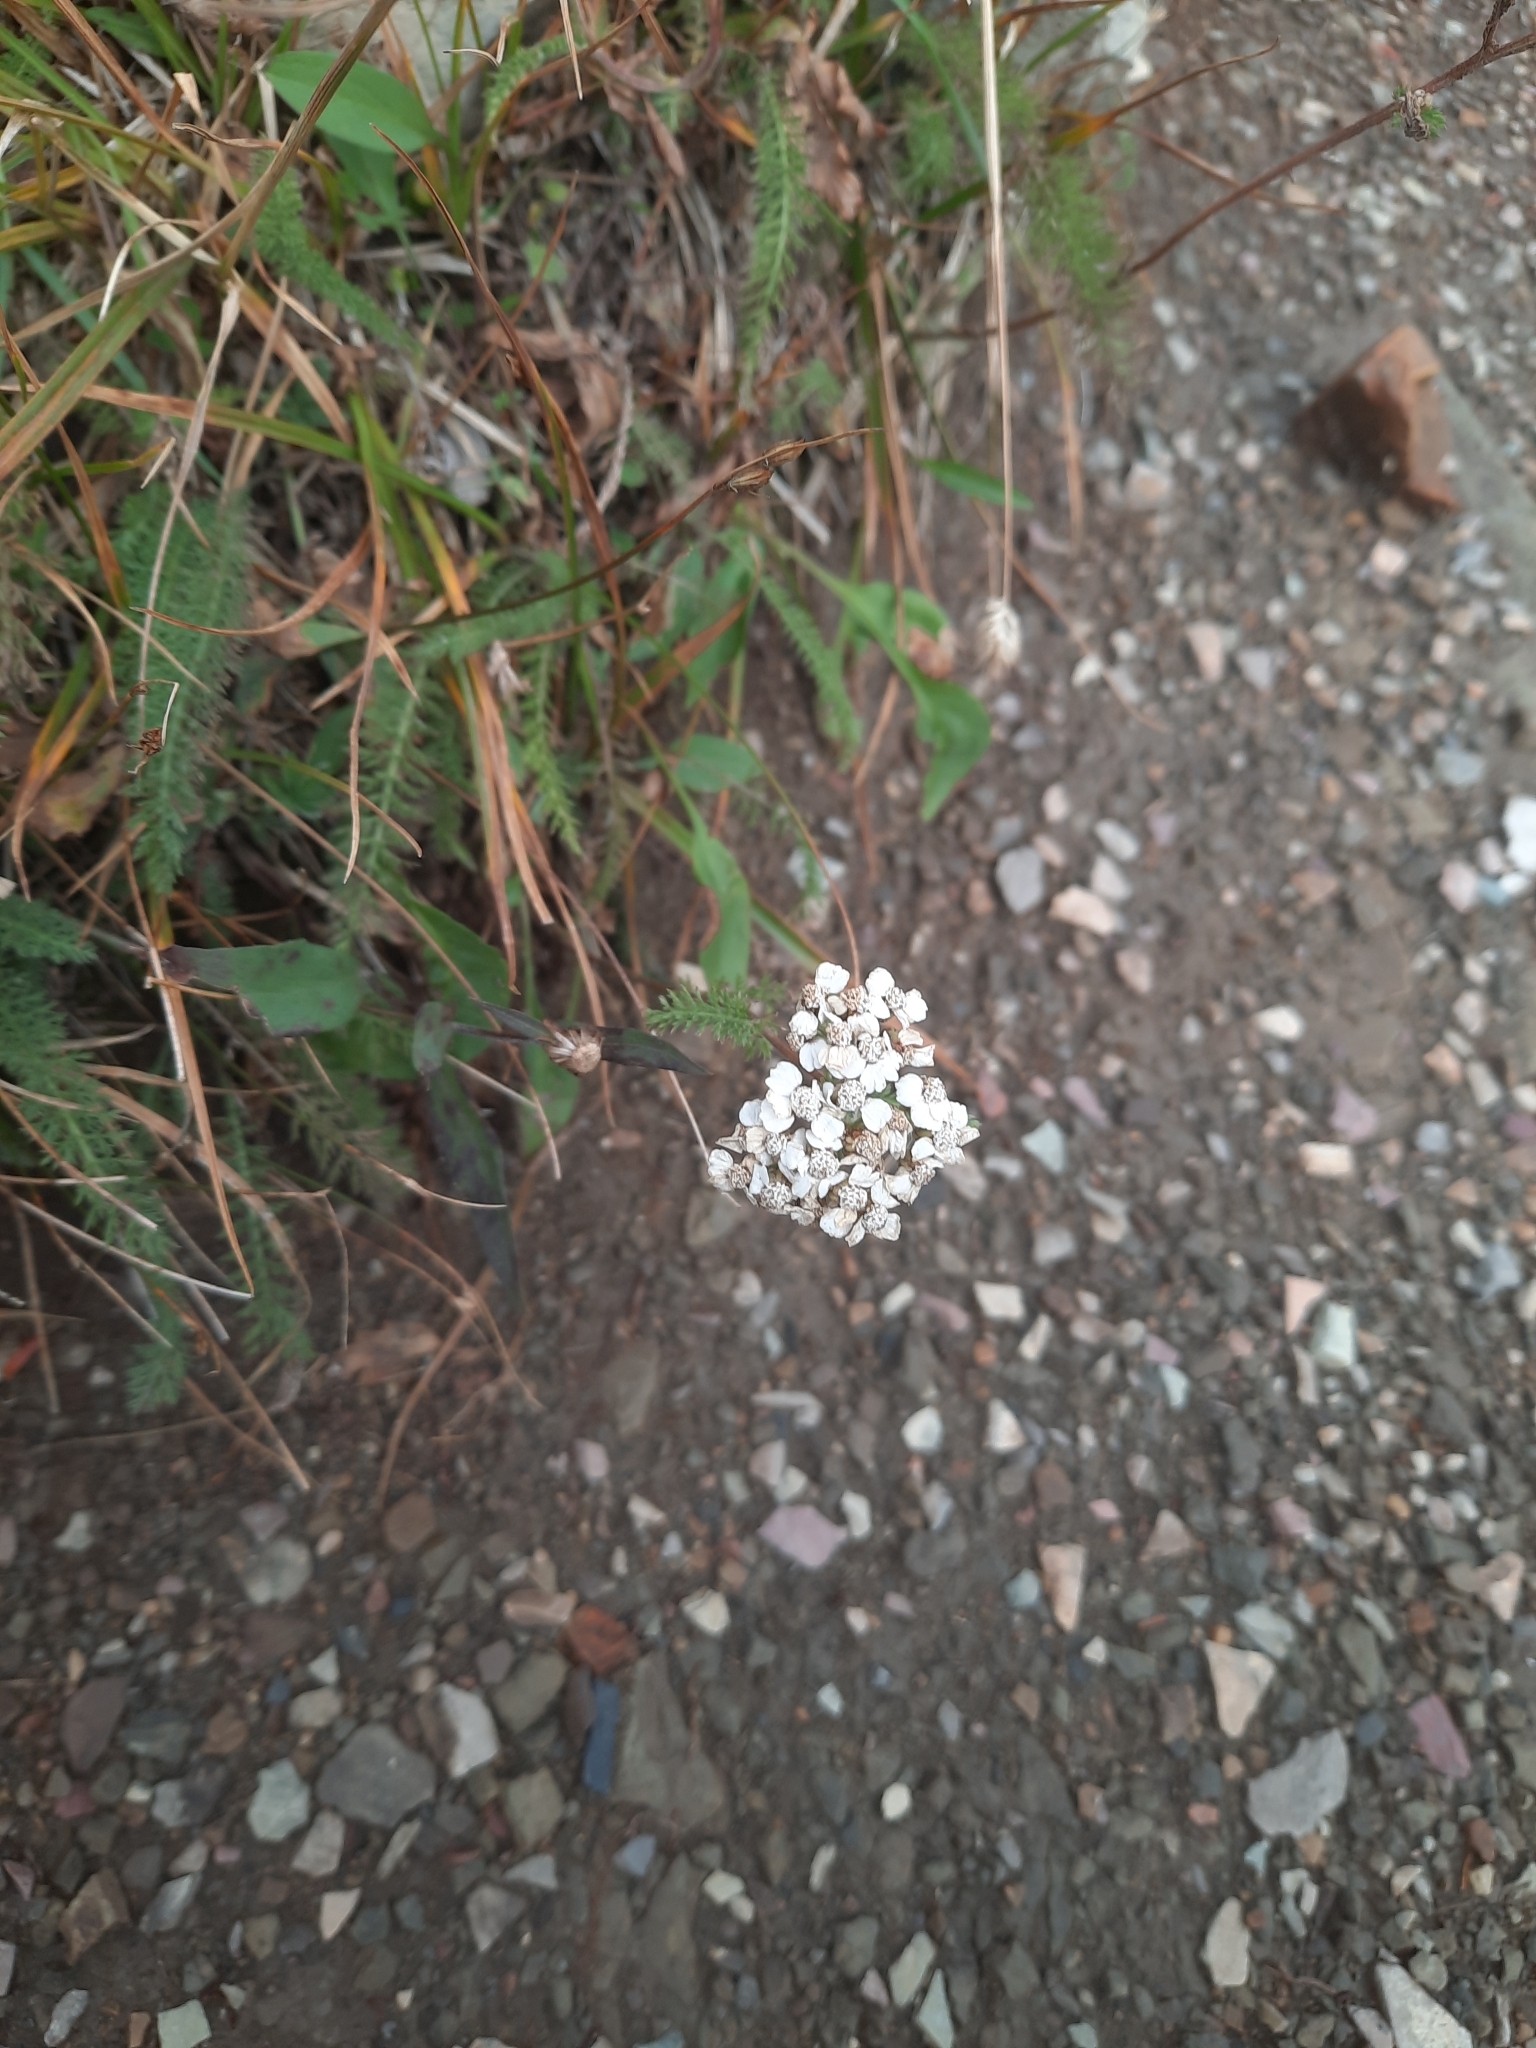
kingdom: Plantae
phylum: Tracheophyta
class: Magnoliopsida
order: Asterales
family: Asteraceae
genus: Achillea
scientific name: Achillea millefolium
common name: Yarrow
